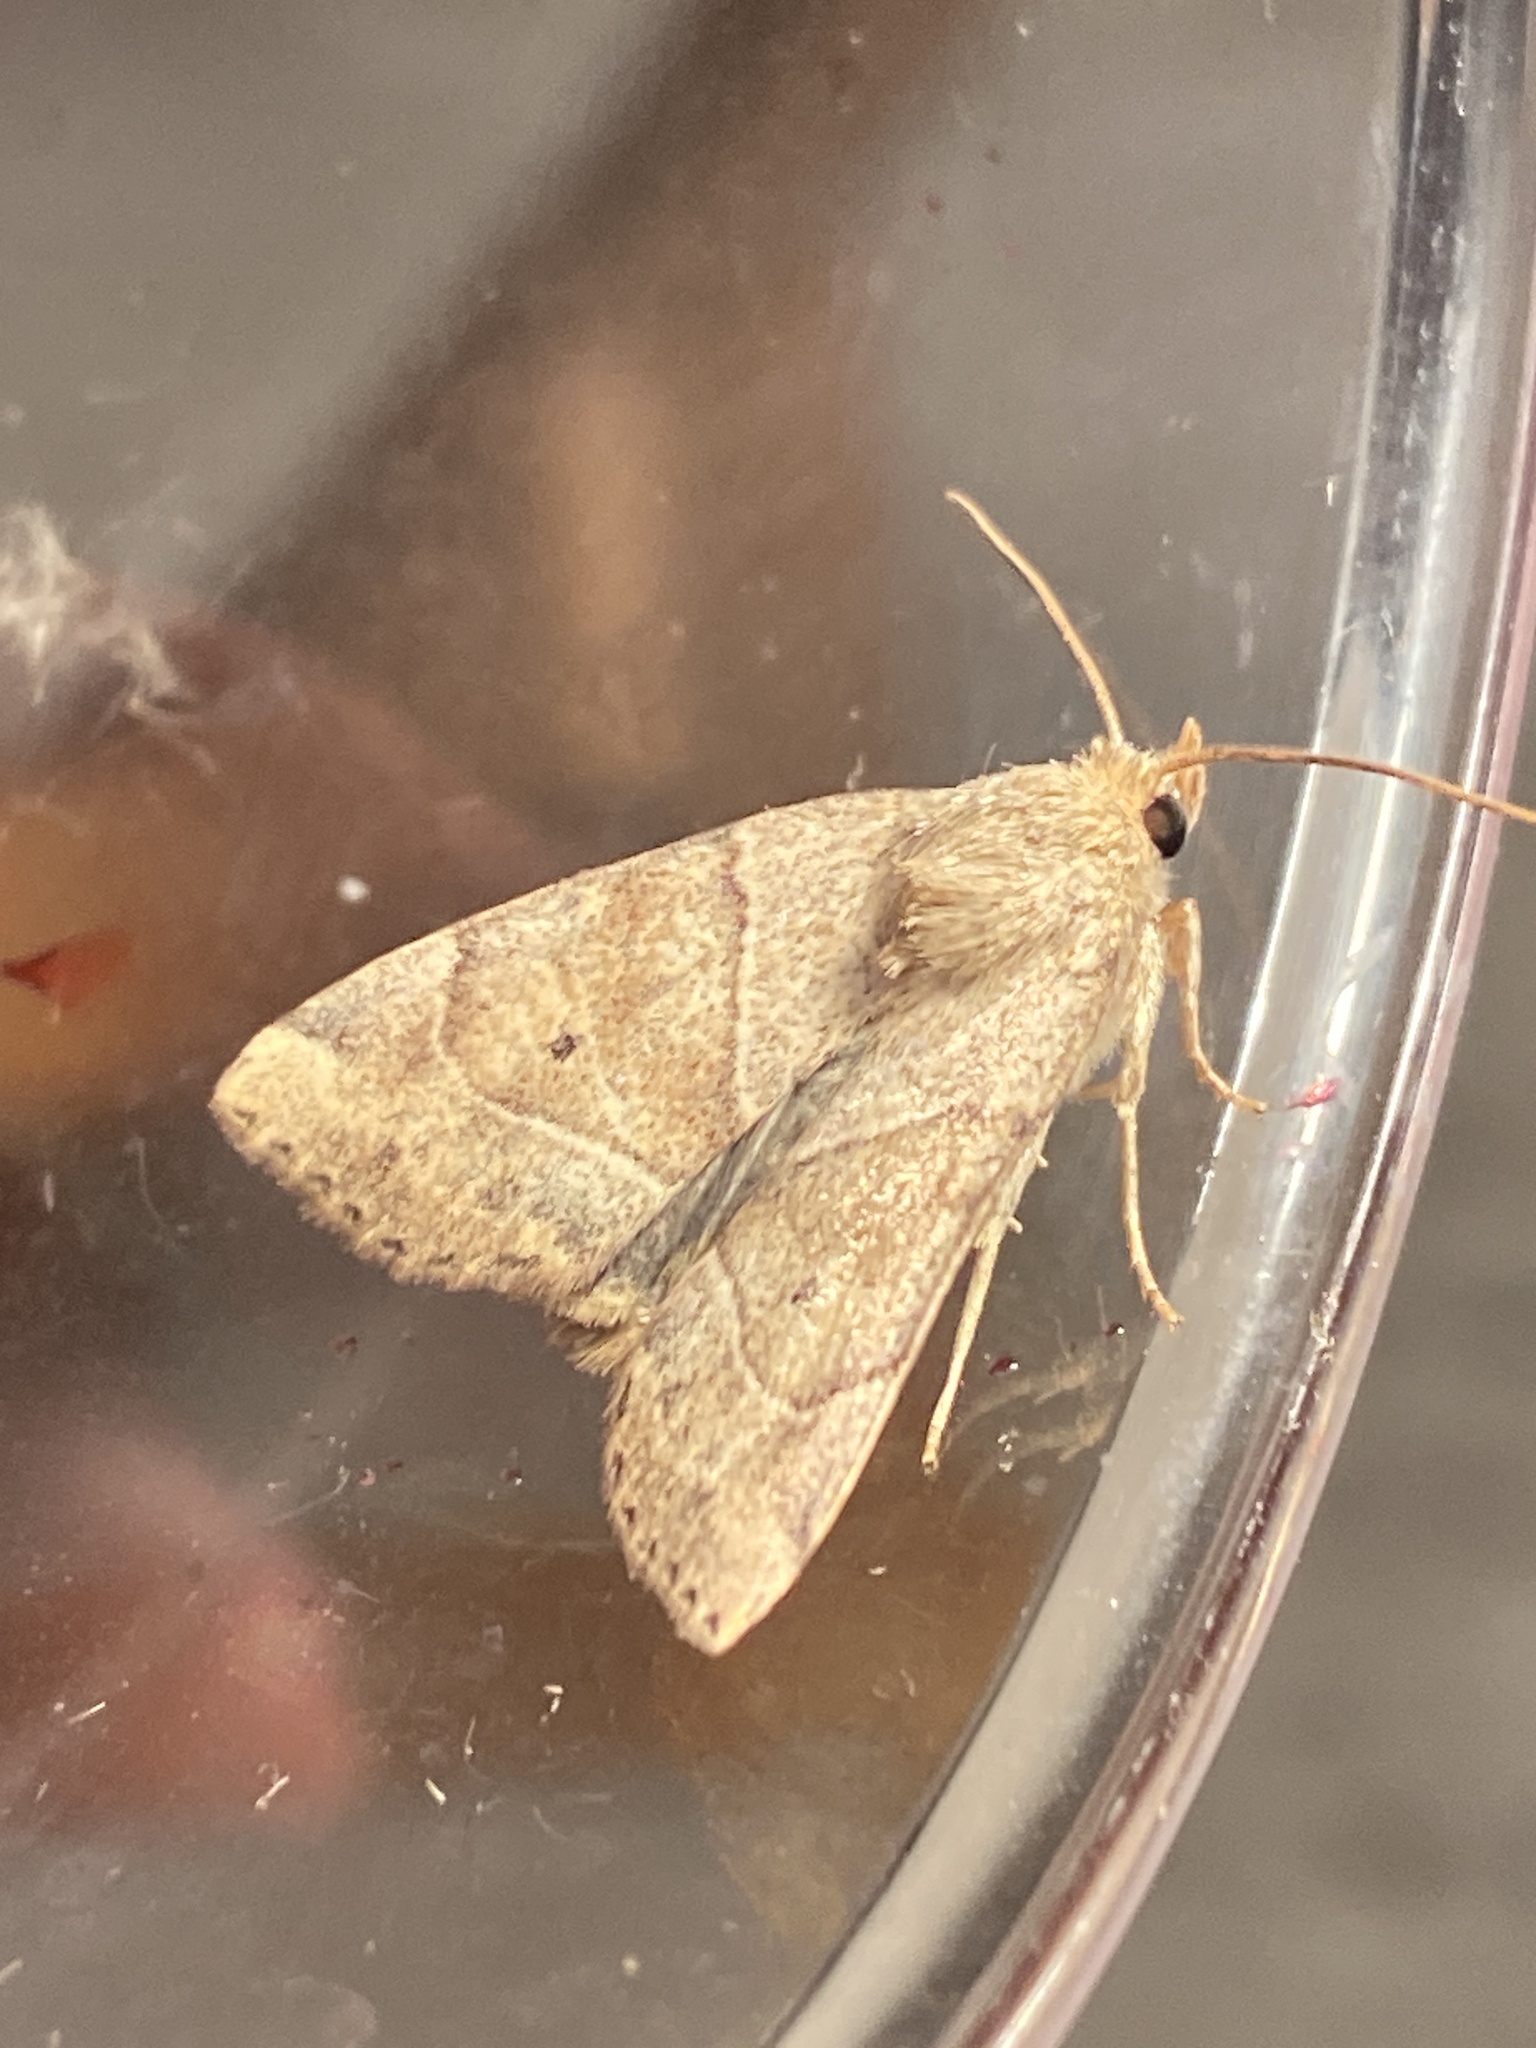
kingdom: Animalia
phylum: Arthropoda
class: Insecta
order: Lepidoptera
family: Noctuidae
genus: Cosmia
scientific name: Cosmia trapezina
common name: Dun-bar
